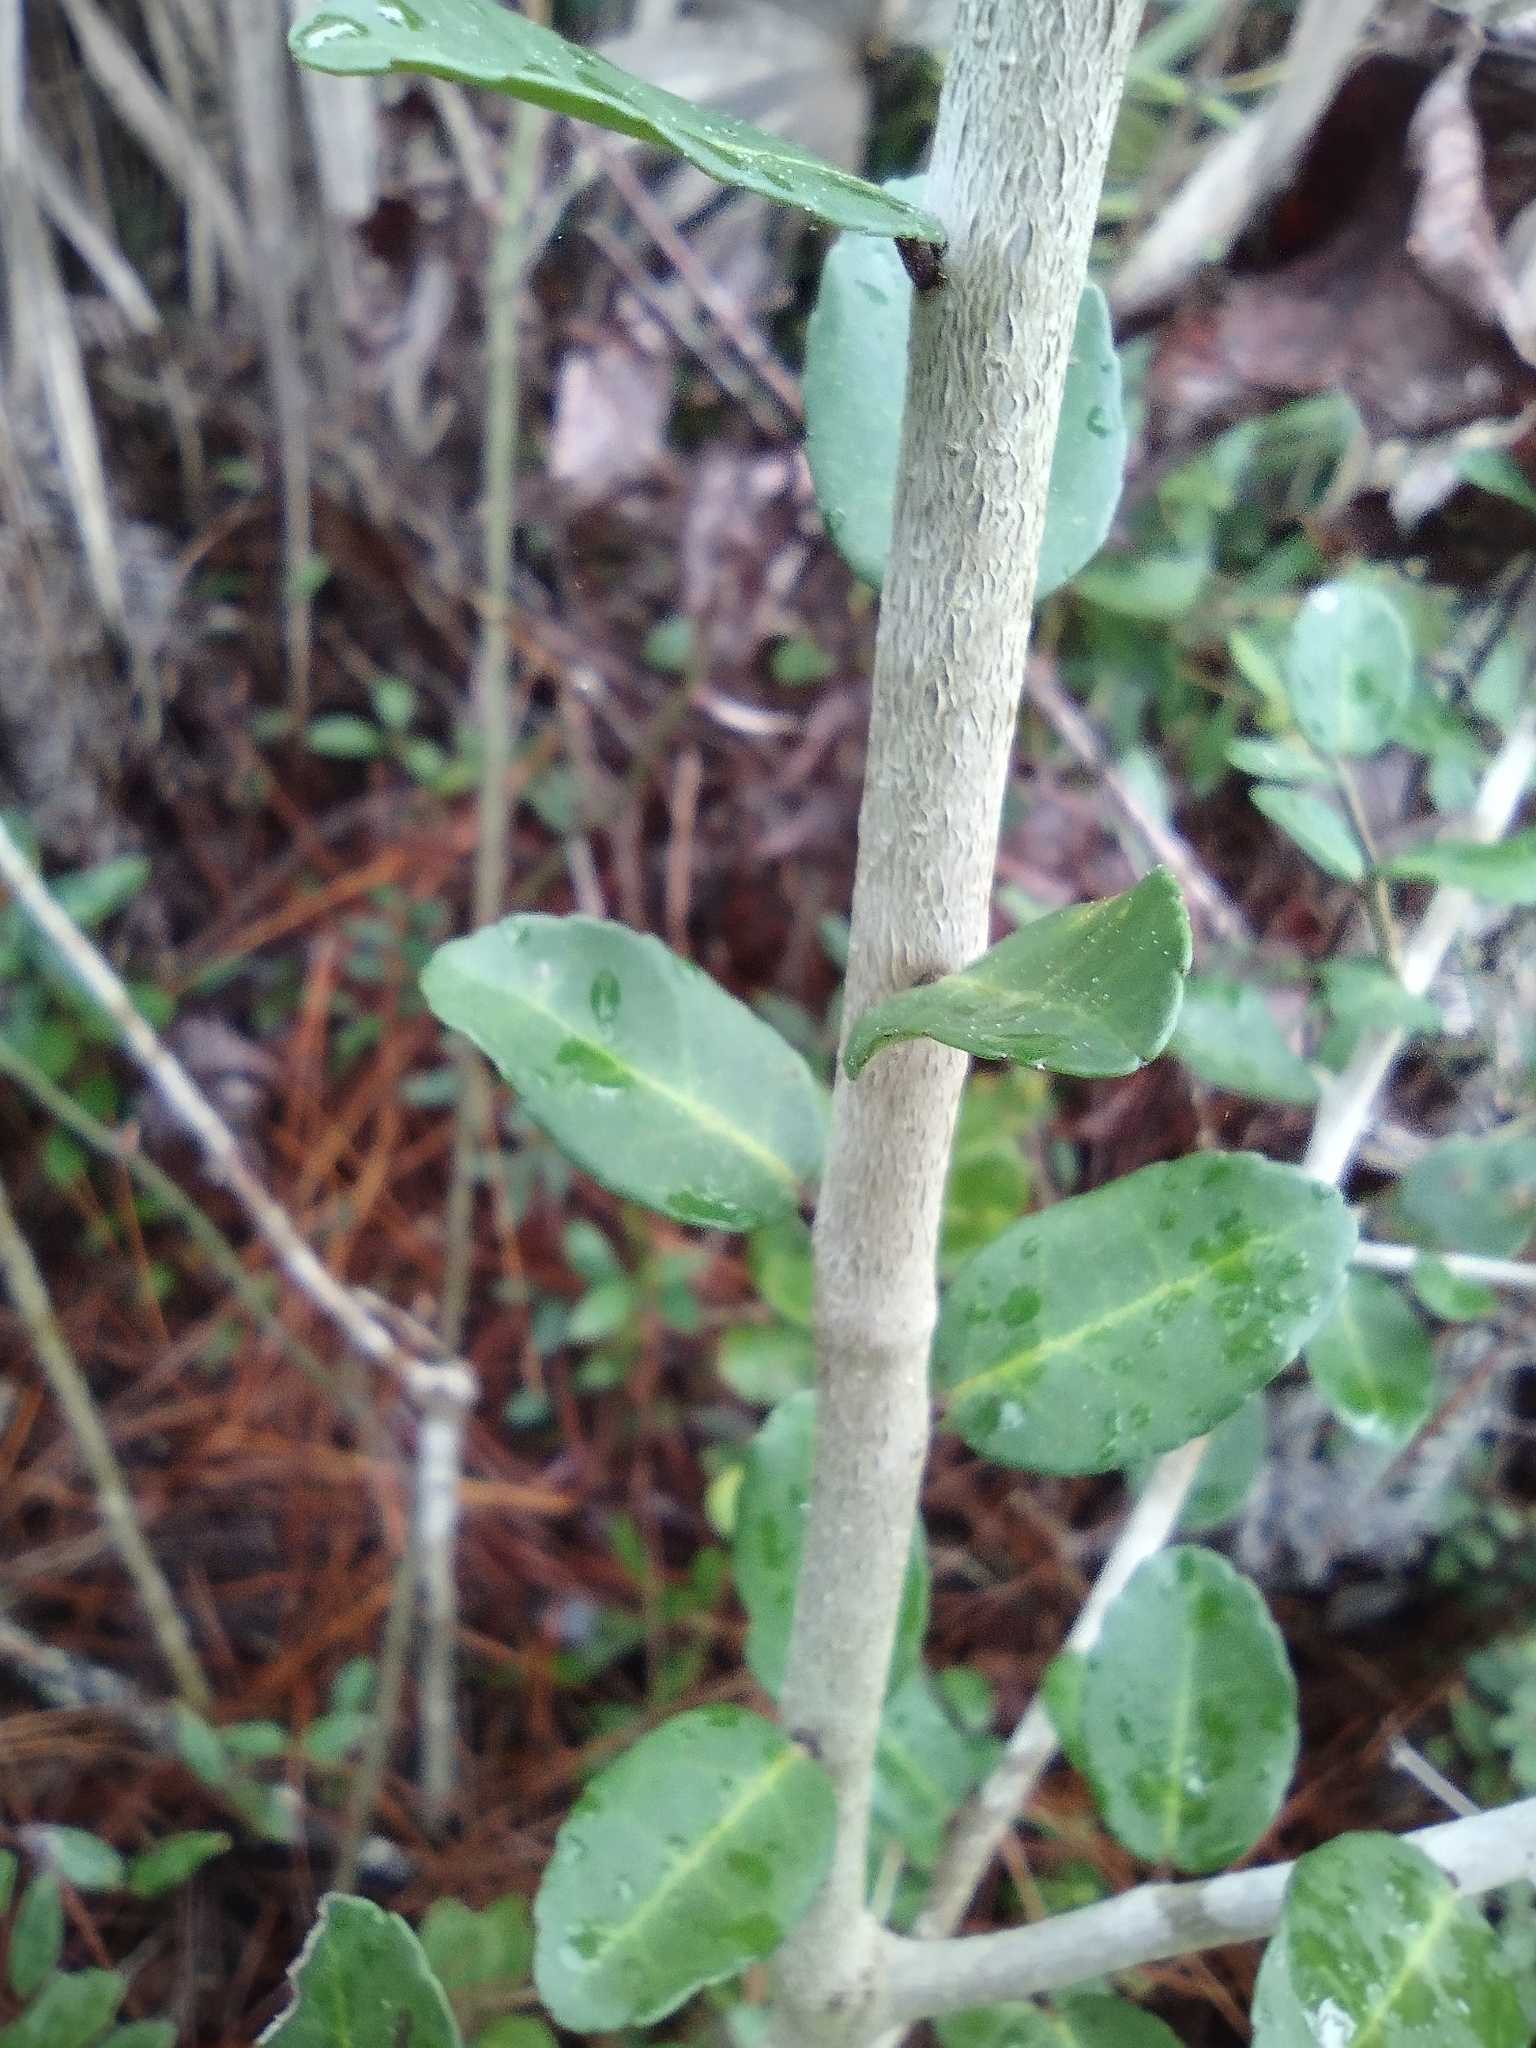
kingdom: Plantae
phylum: Tracheophyta
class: Magnoliopsida
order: Aquifoliales
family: Aquifoliaceae
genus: Ilex
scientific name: Ilex vomitoria
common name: Yaupon holly
